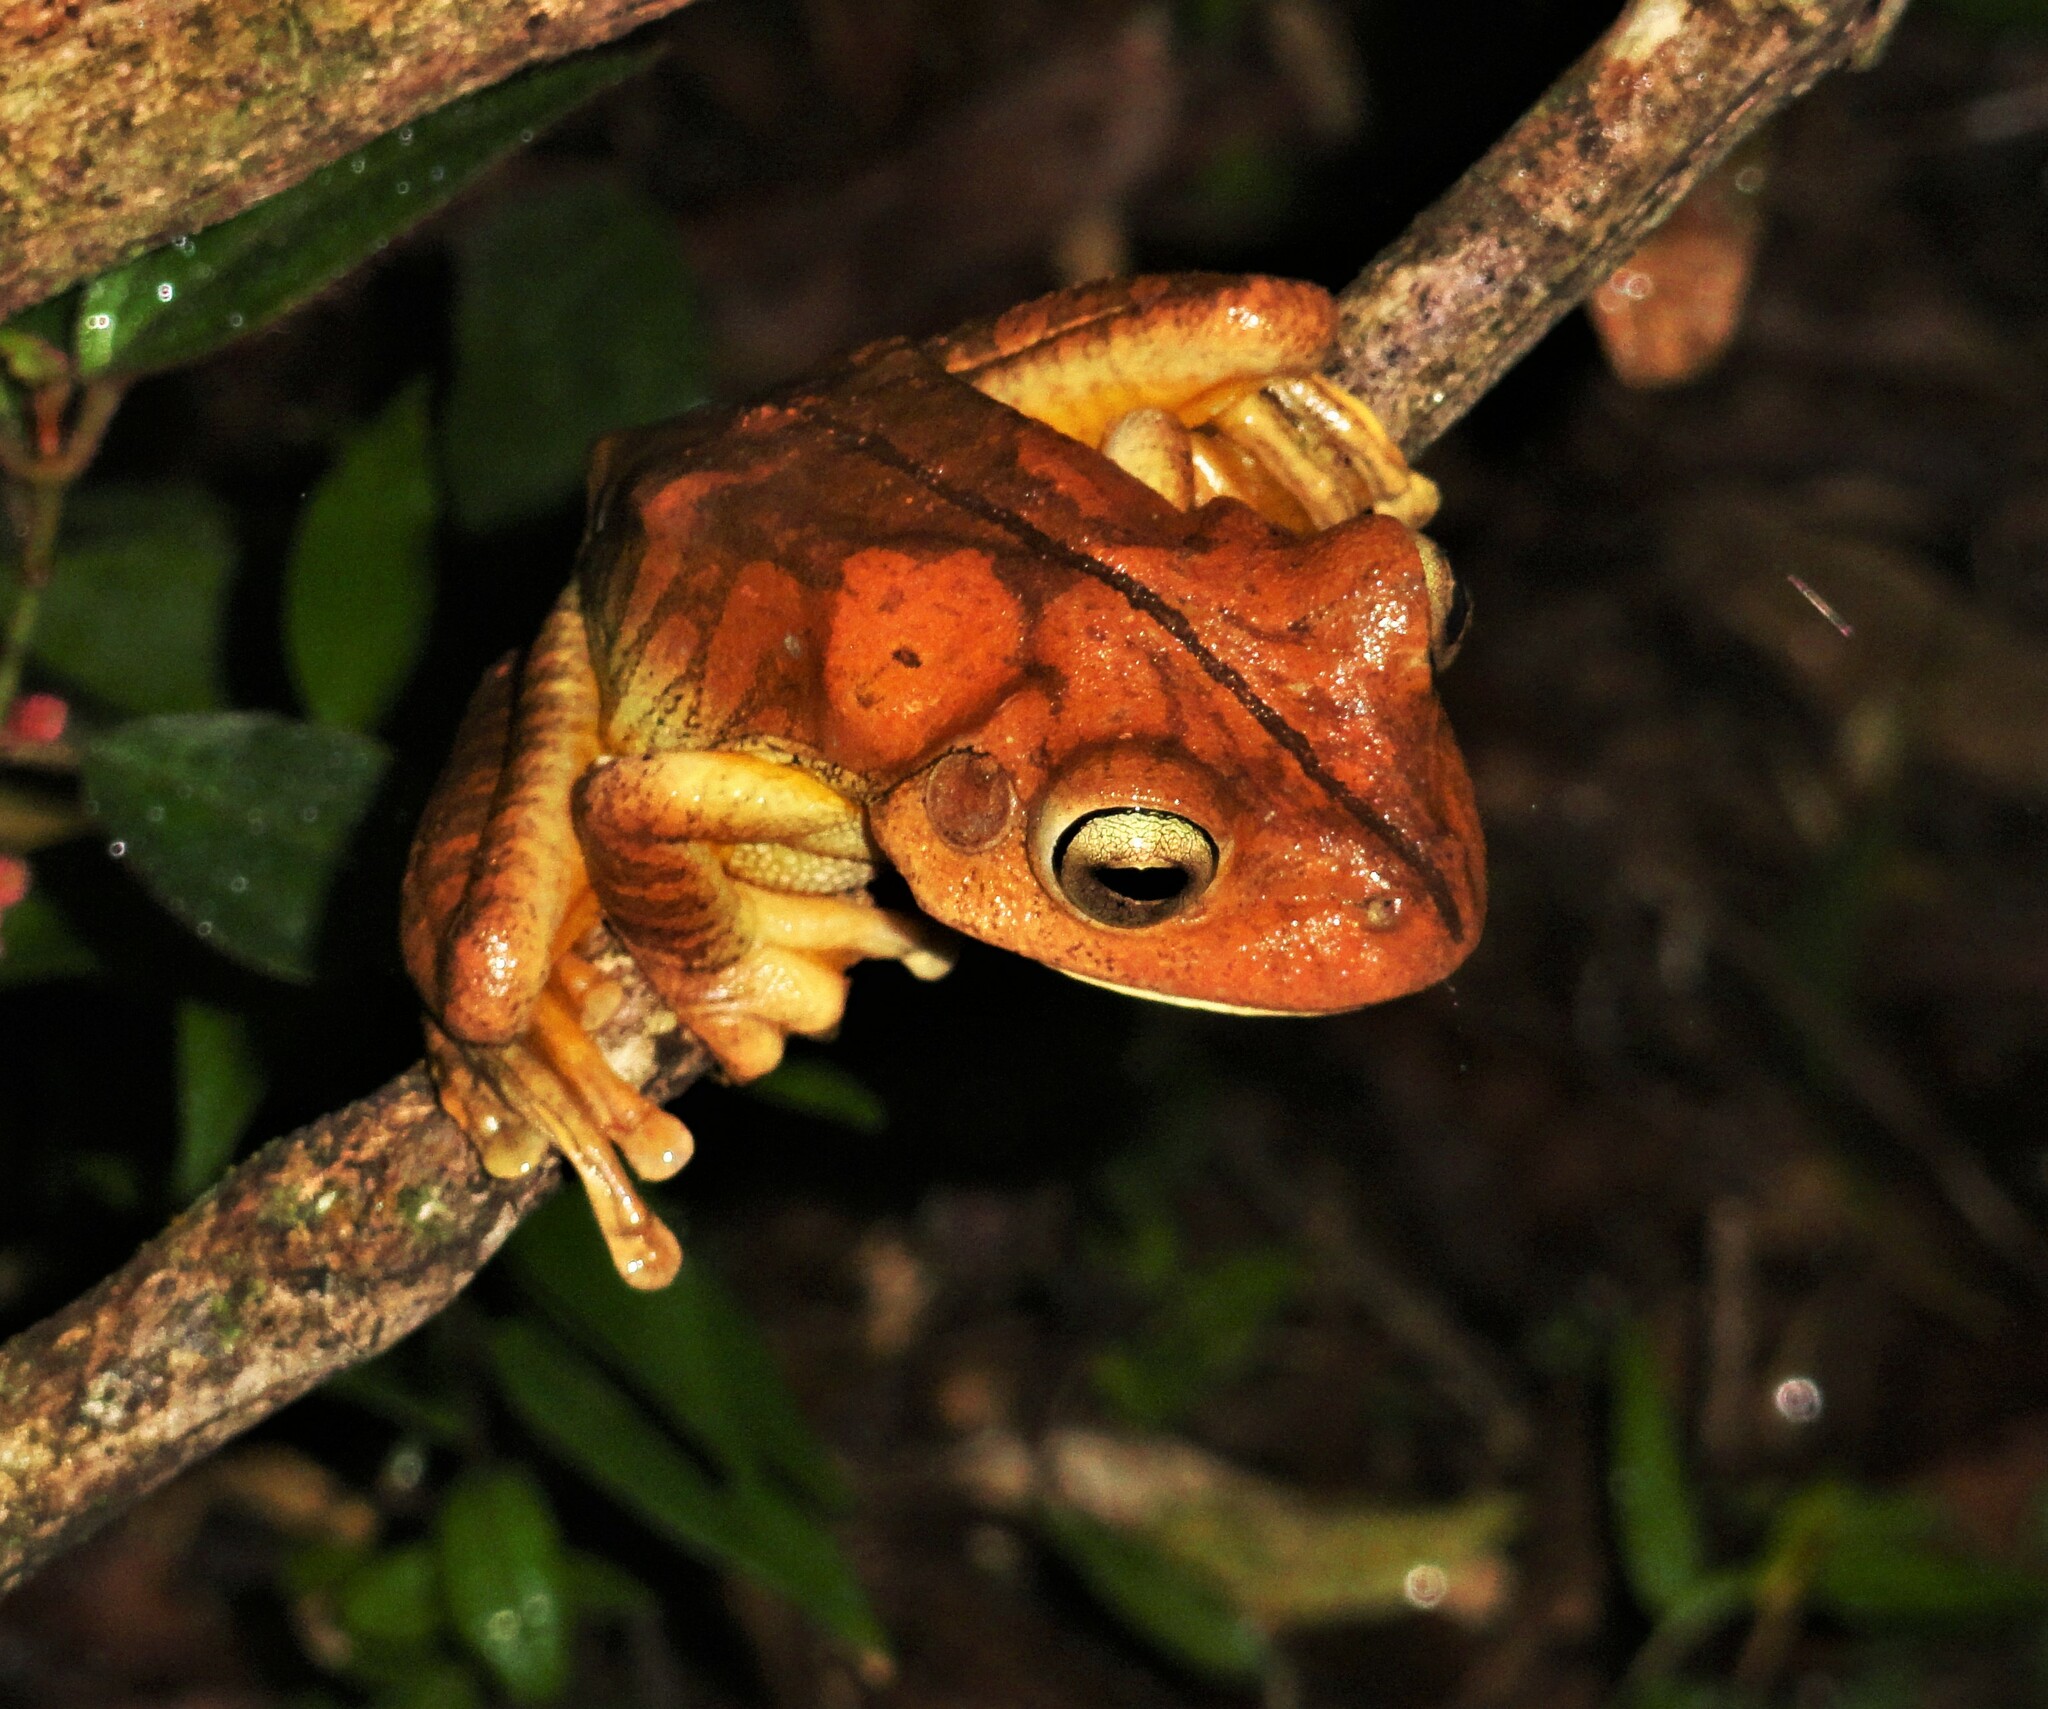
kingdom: Animalia
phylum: Chordata
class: Amphibia
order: Anura
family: Hylidae
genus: Boana
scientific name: Boana faber
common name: Blacksmith tree frog
